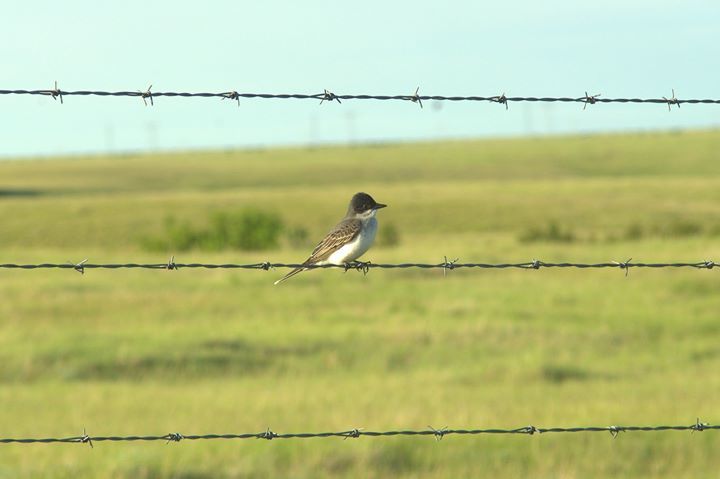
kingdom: Animalia
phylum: Chordata
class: Aves
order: Passeriformes
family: Tyrannidae
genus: Tyrannus
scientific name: Tyrannus tyrannus
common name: Eastern kingbird
